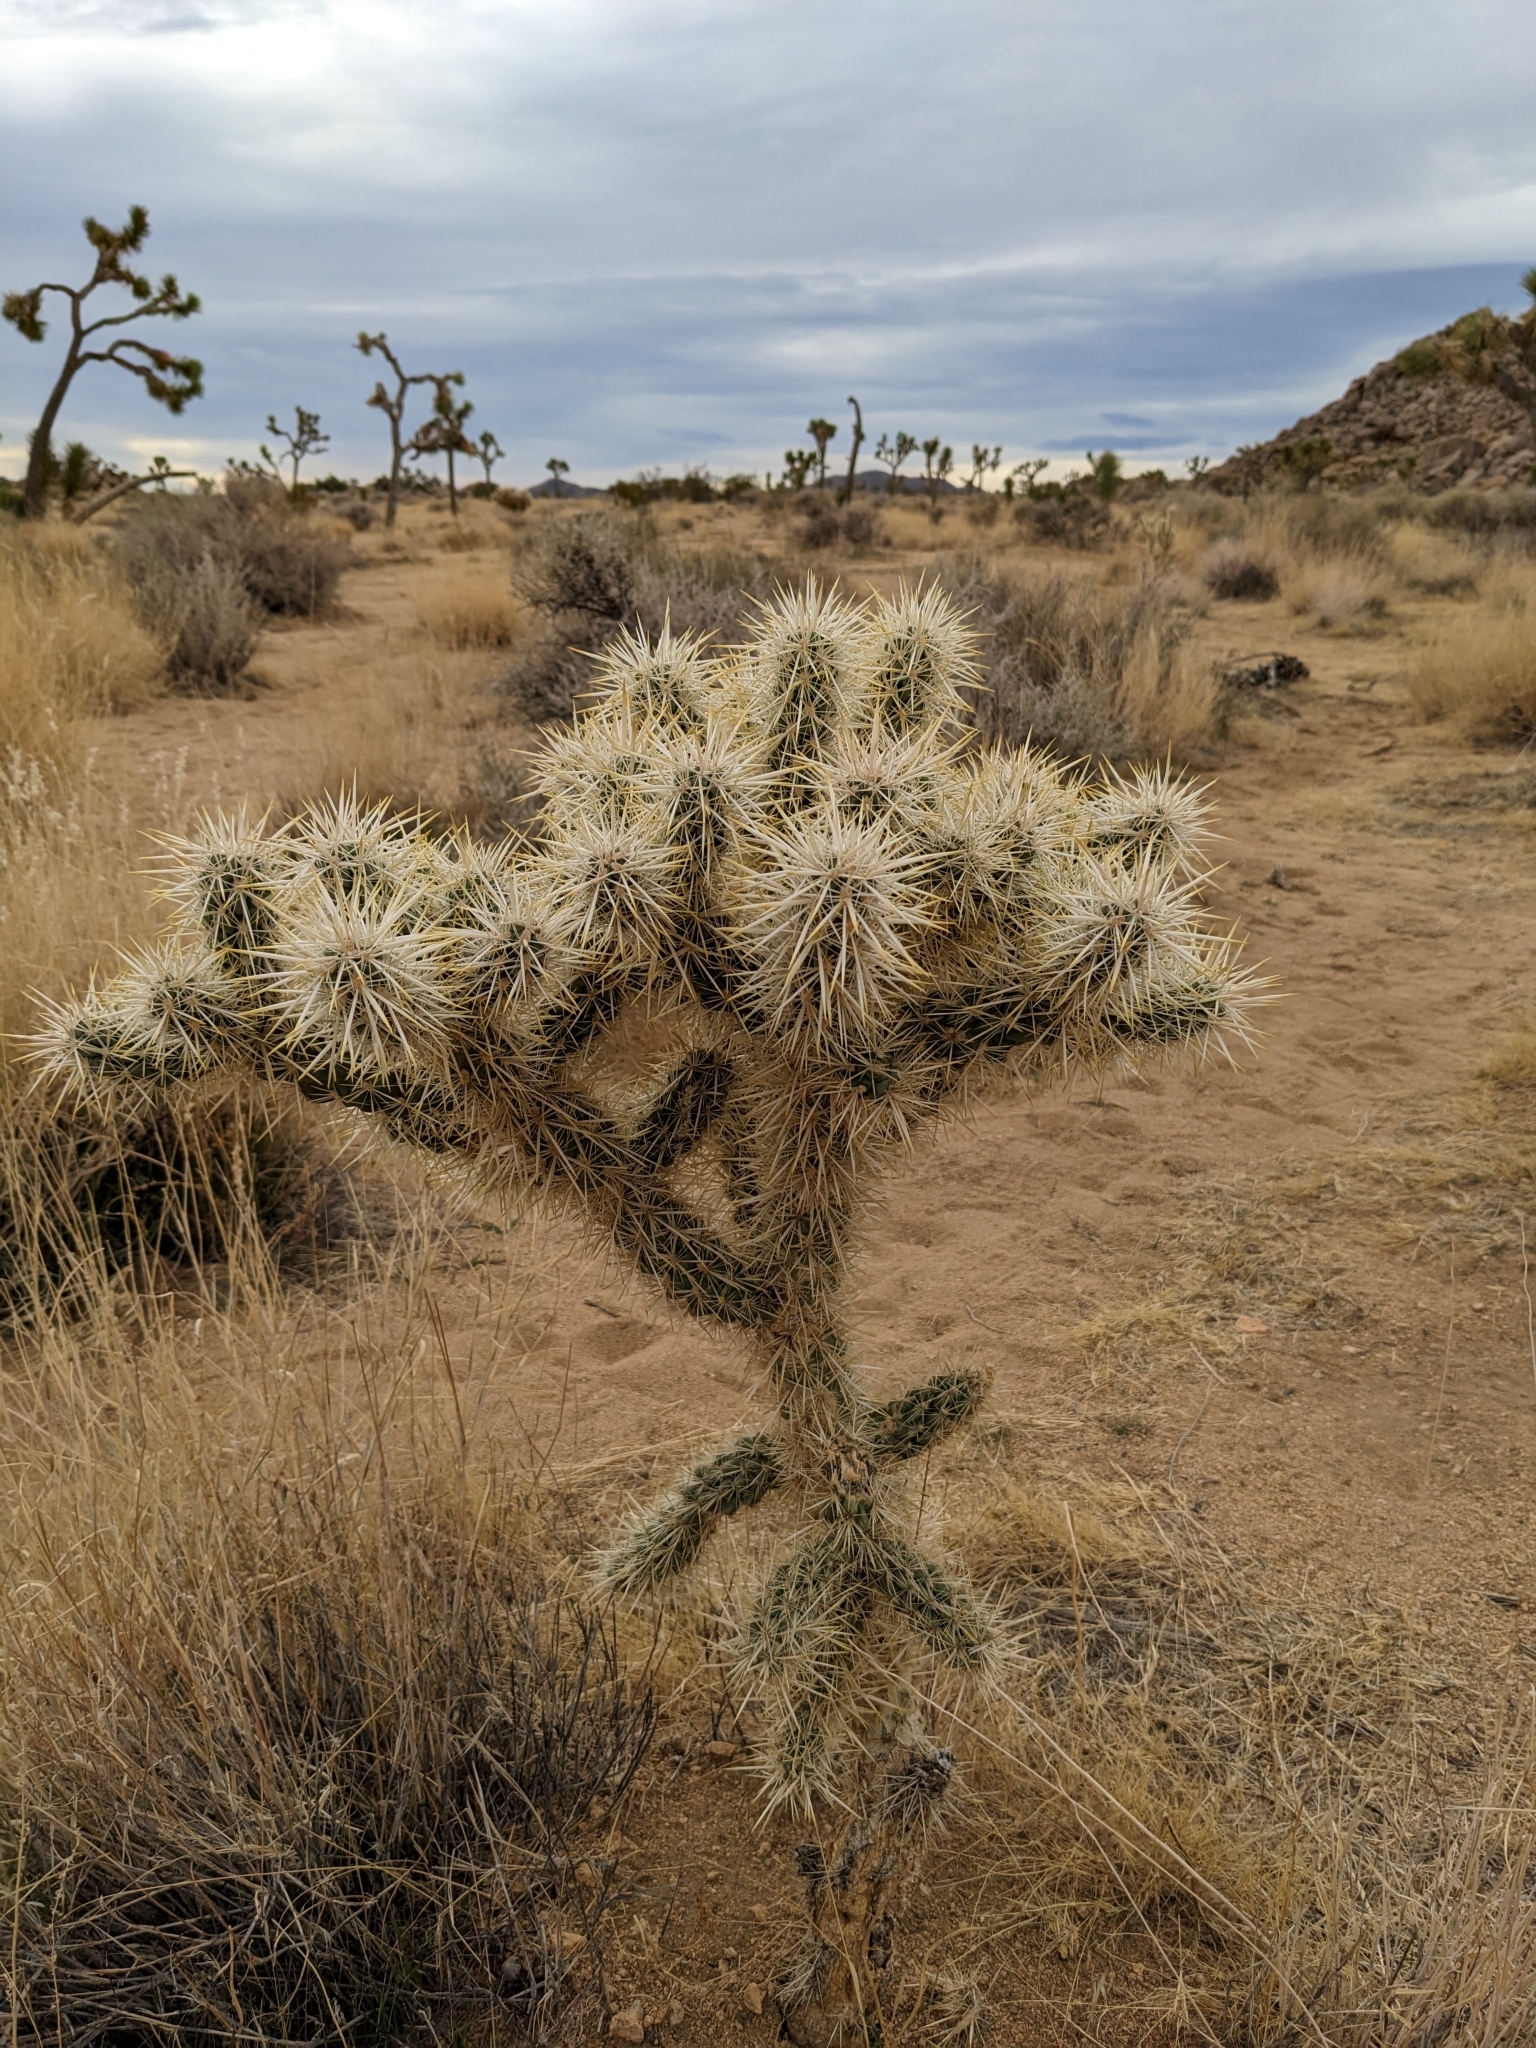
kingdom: Plantae
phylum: Tracheophyta
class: Magnoliopsida
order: Caryophyllales
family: Cactaceae
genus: Cylindropuntia
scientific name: Cylindropuntia echinocarpa
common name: Ground cholla
